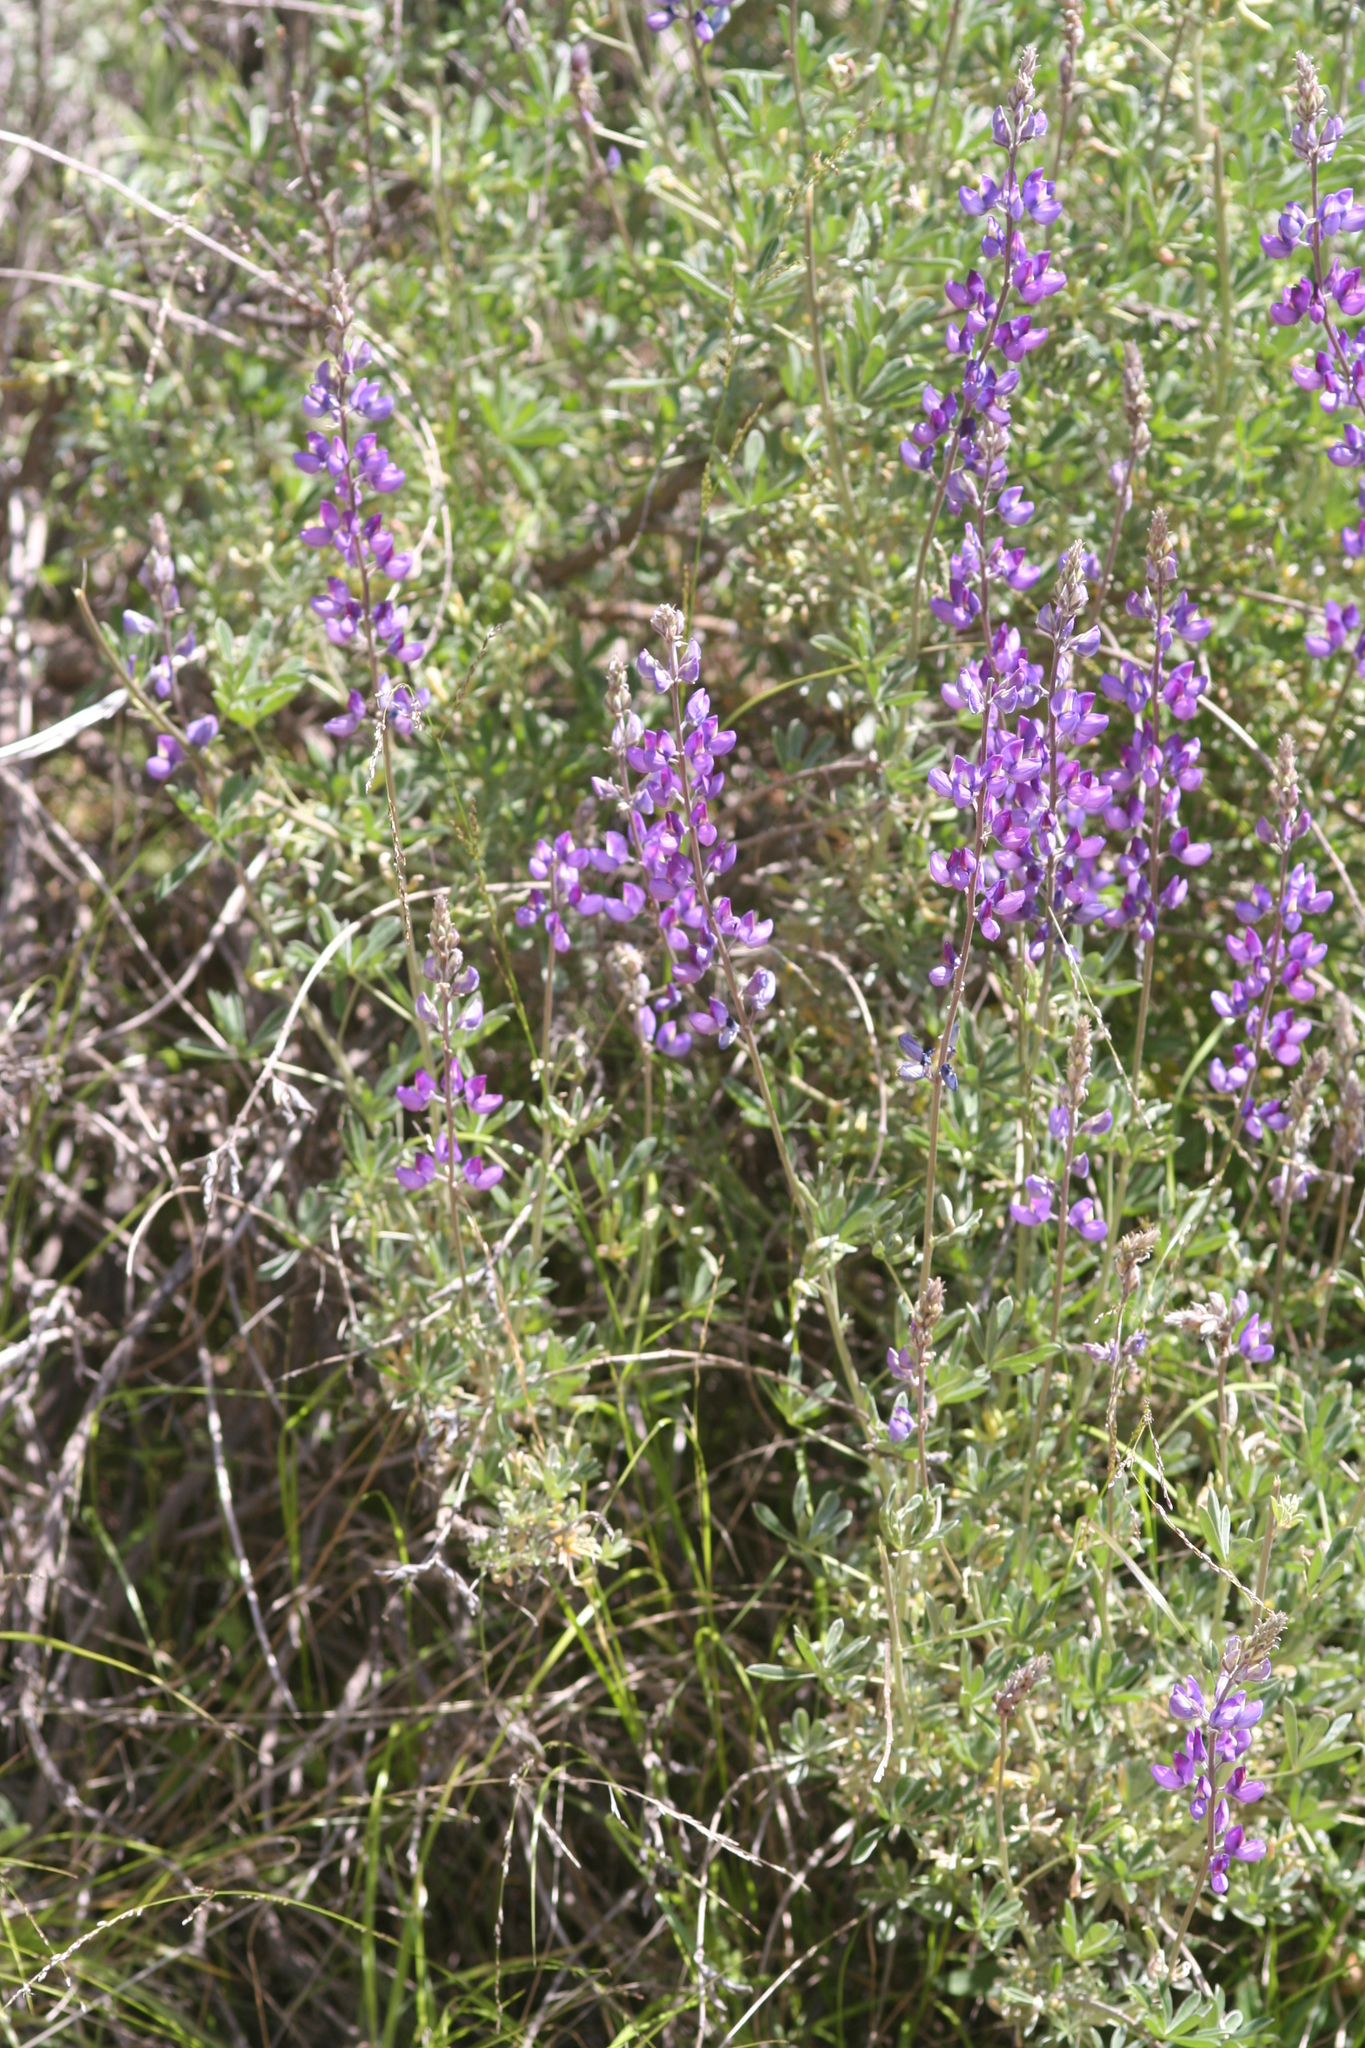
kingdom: Plantae
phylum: Tracheophyta
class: Magnoliopsida
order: Fabales
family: Fabaceae
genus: Lupinus
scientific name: Lupinus albifrons
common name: Foothill lupine
